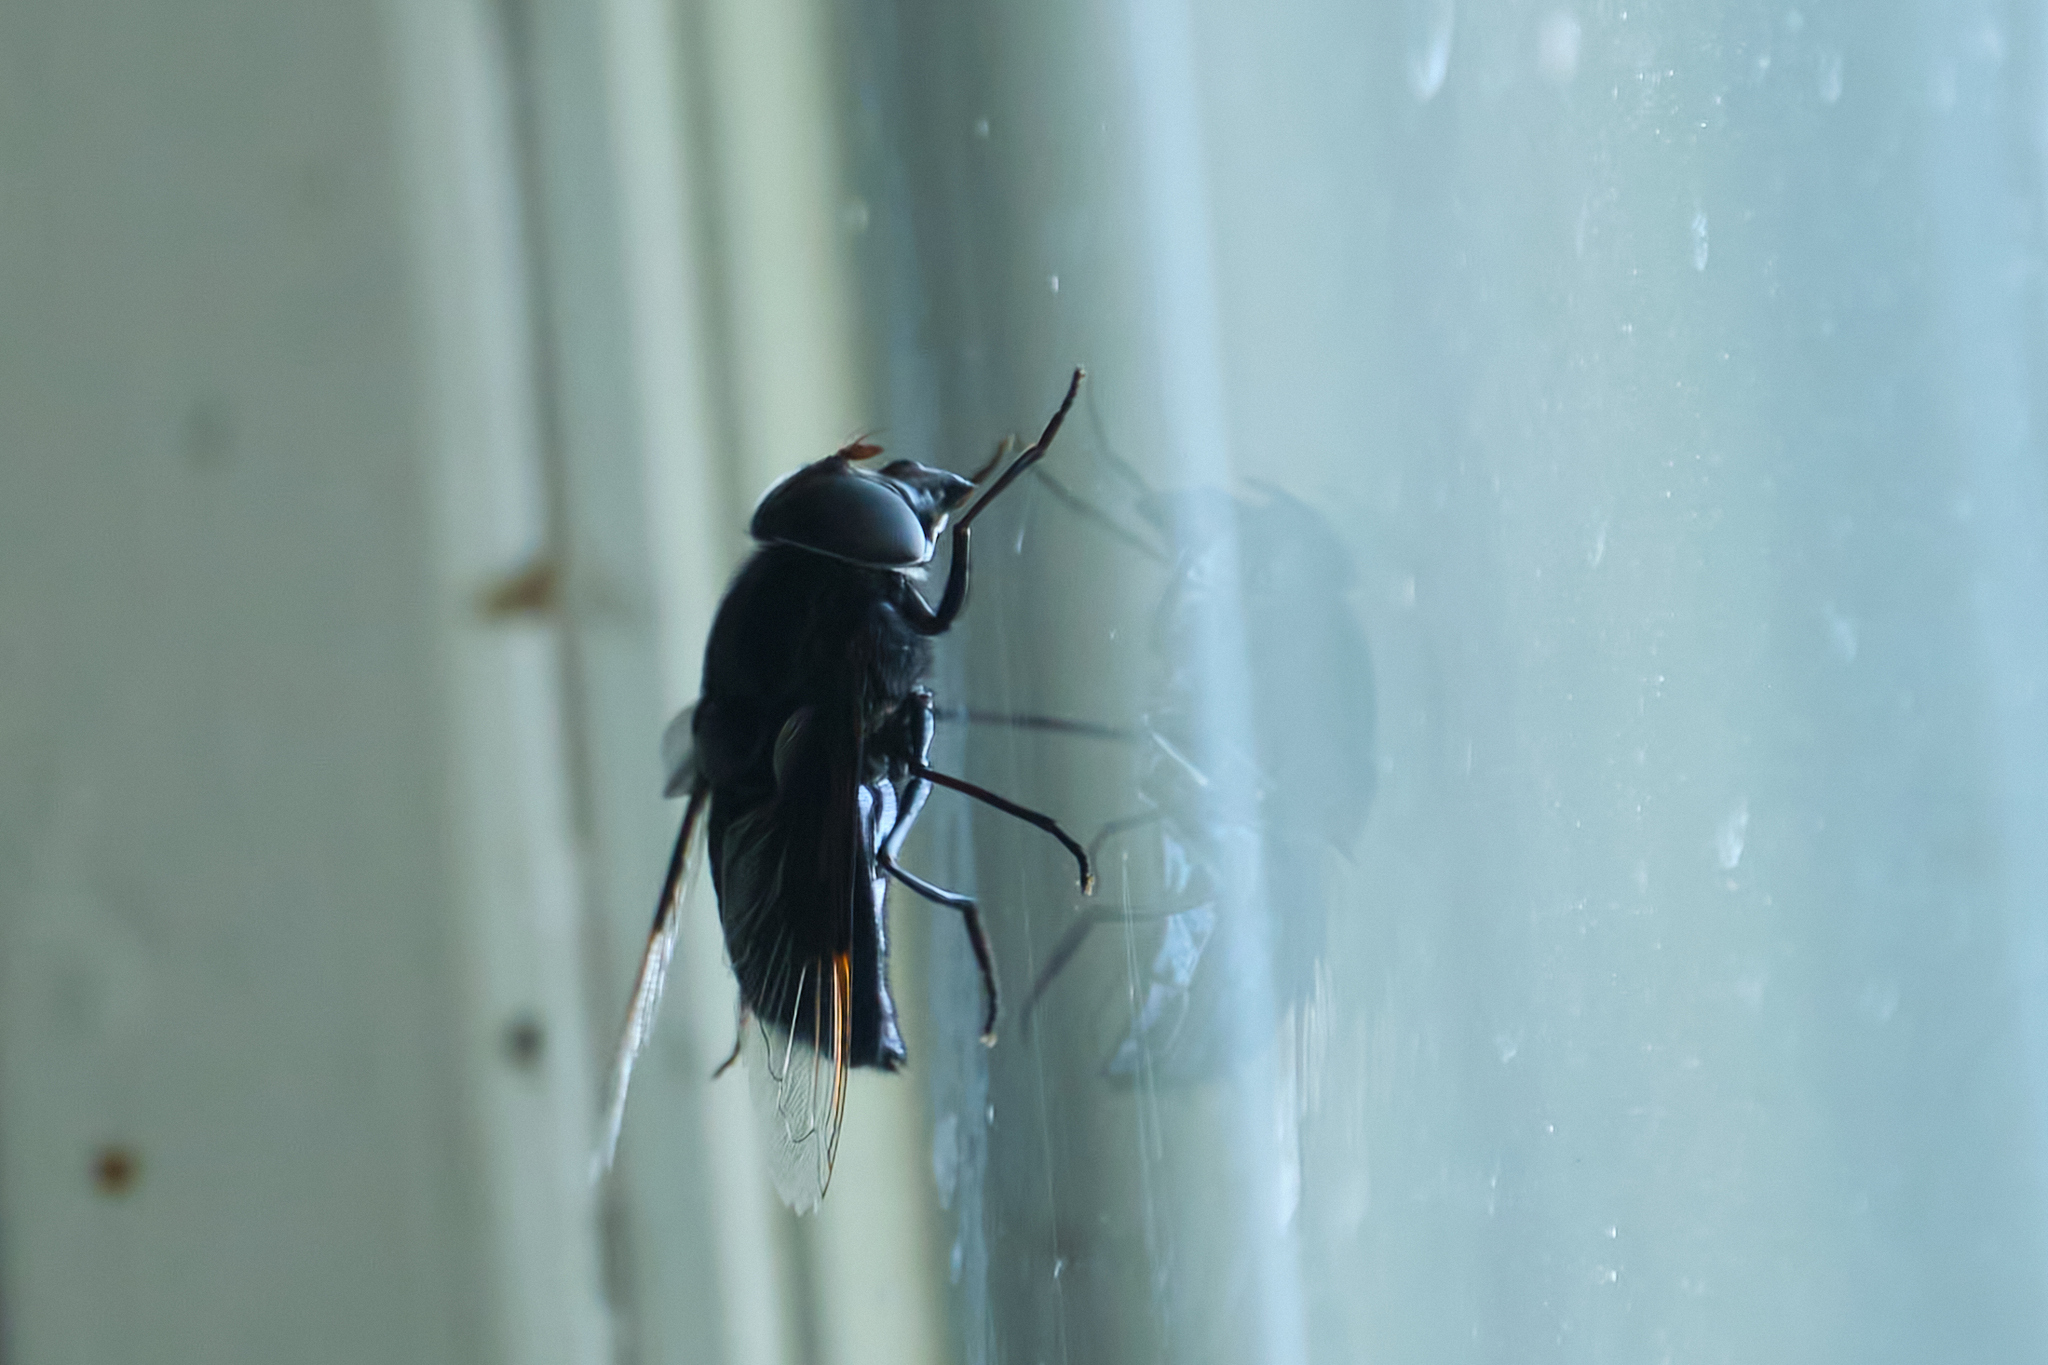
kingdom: Animalia
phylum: Arthropoda
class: Insecta
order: Diptera
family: Syrphidae
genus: Copestylum
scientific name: Copestylum mexicanum
